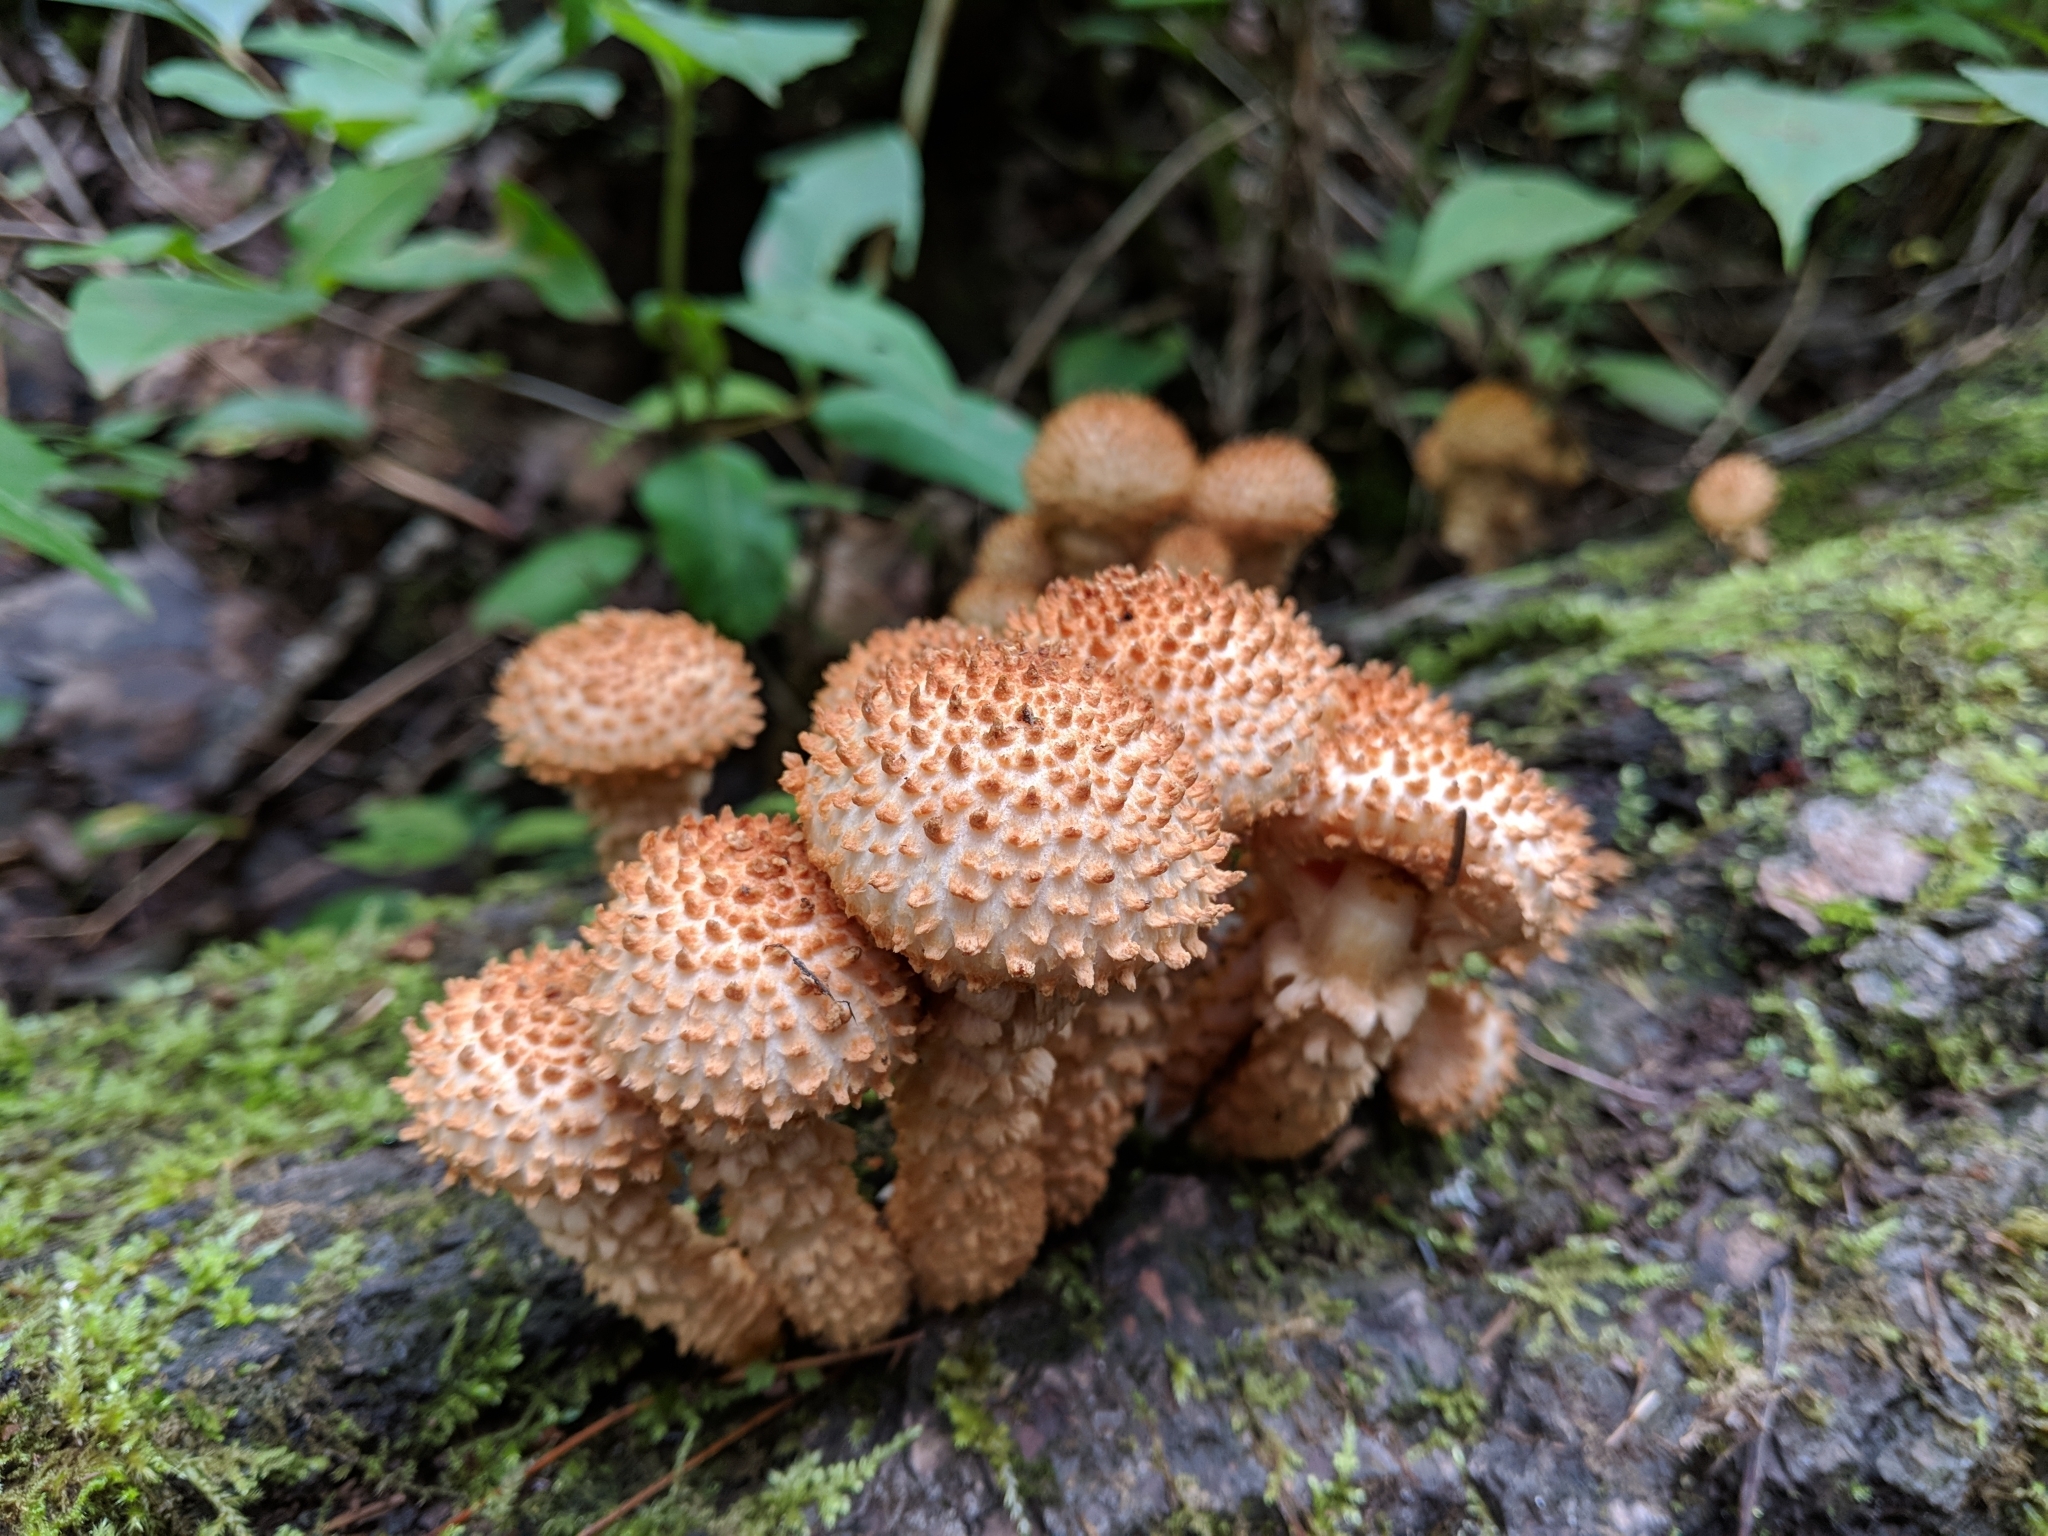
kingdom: Fungi
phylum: Basidiomycota
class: Agaricomycetes
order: Agaricales
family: Strophariaceae
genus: Pholiota
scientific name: Pholiota squarrosa
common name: Shaggy pholiota
